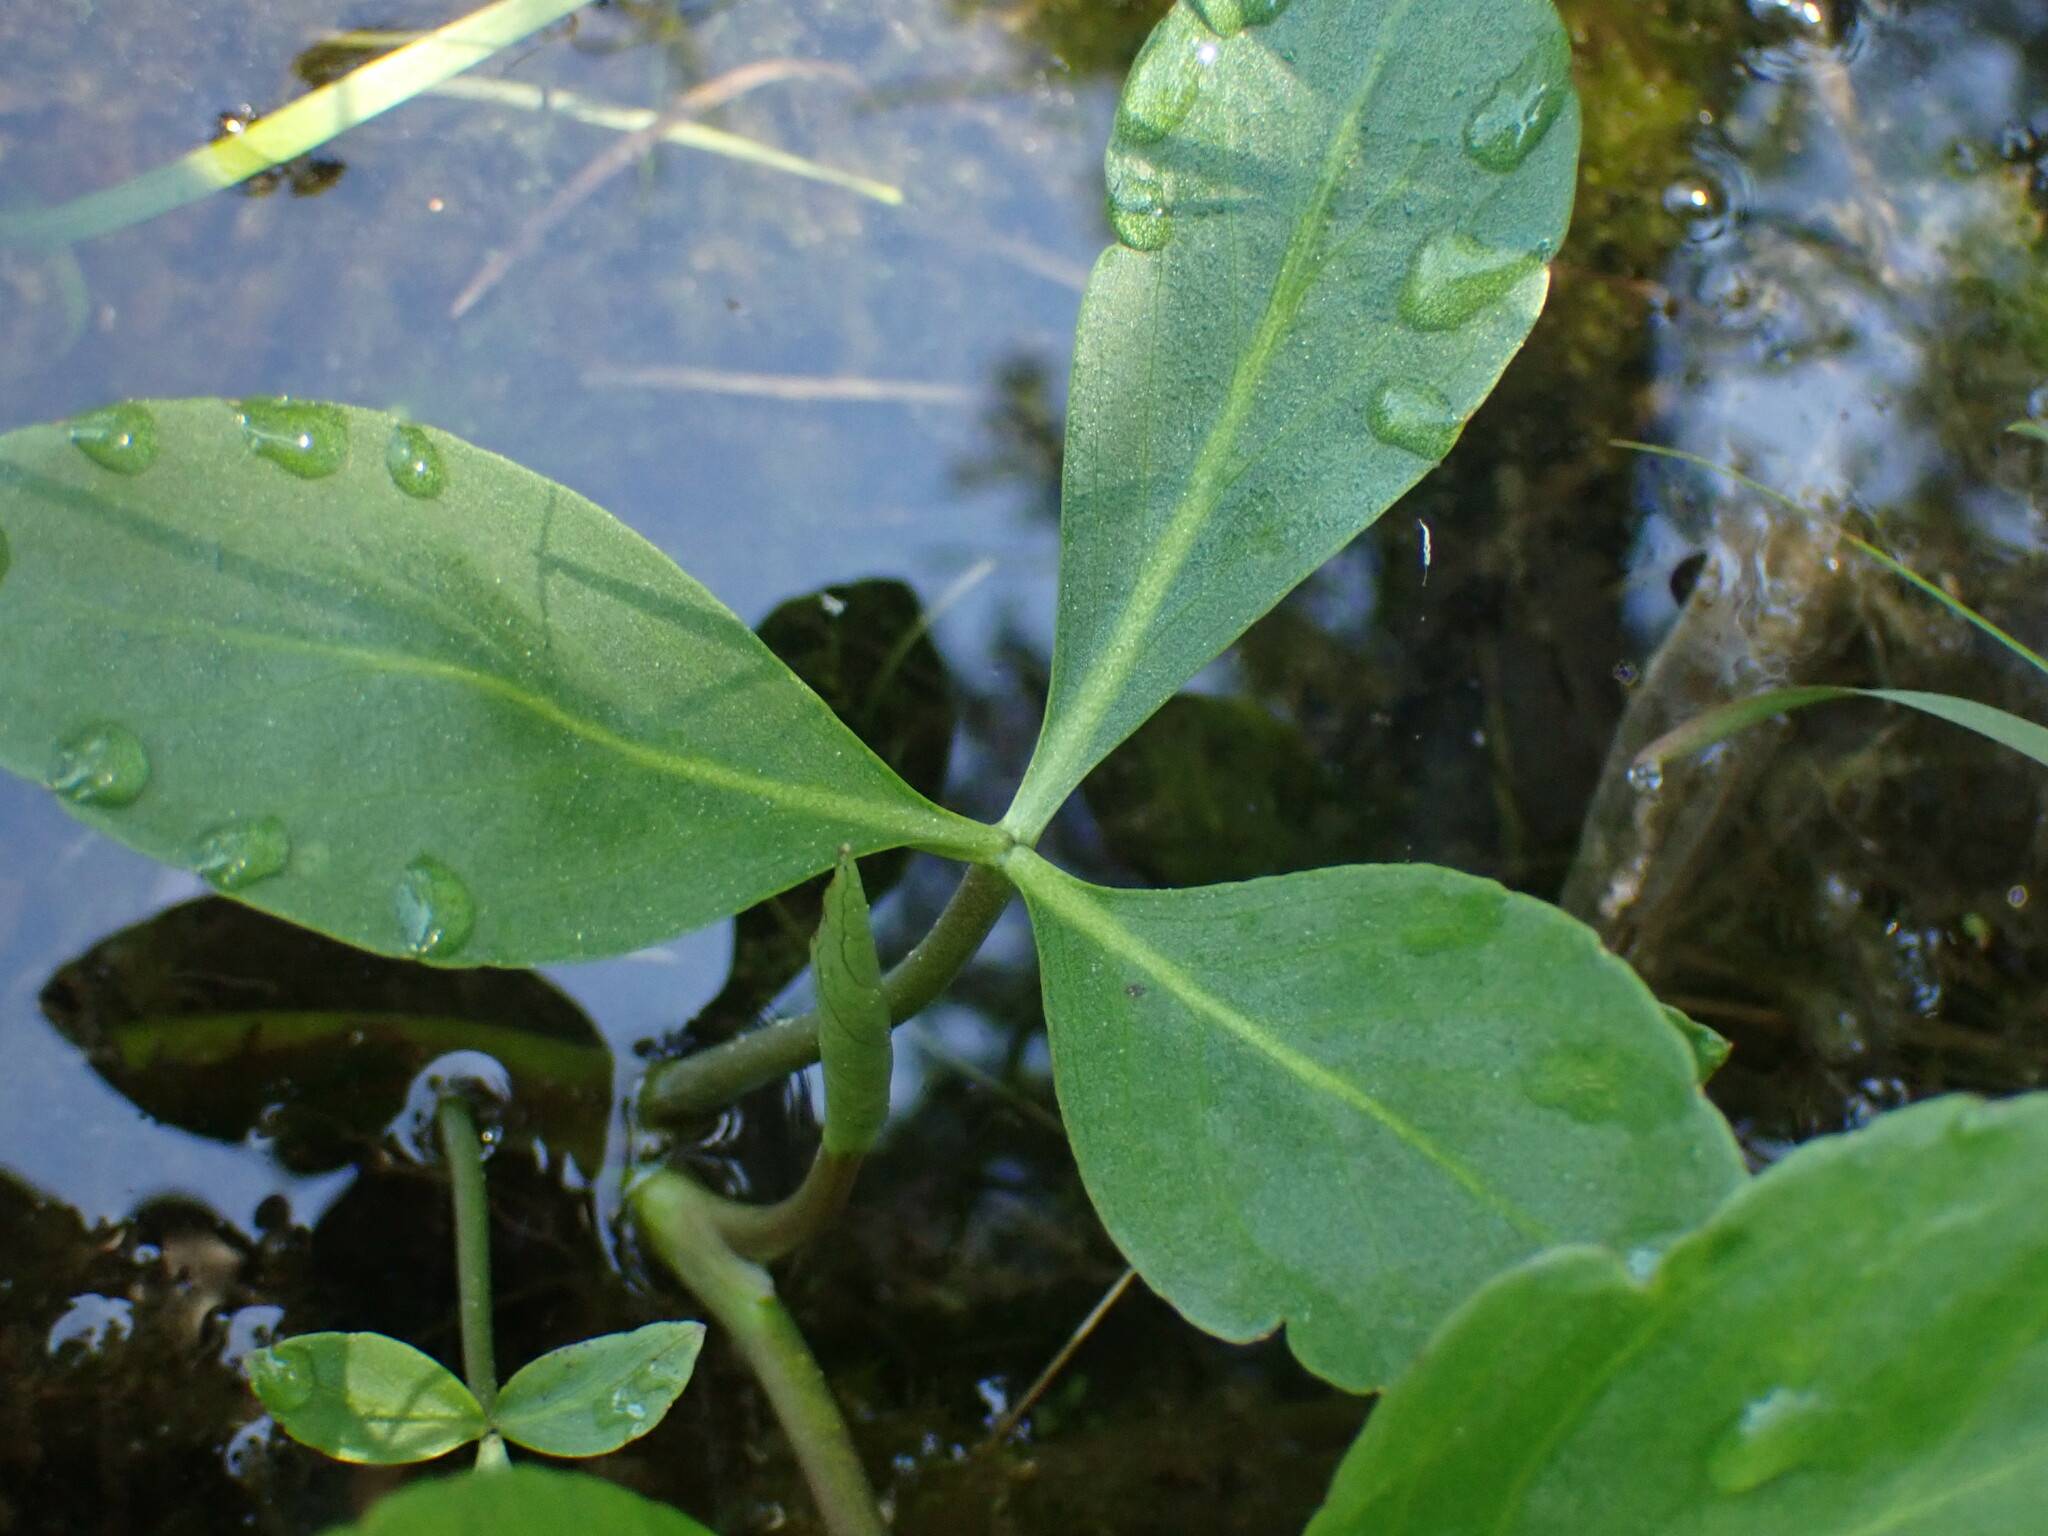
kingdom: Plantae
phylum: Tracheophyta
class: Magnoliopsida
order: Asterales
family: Menyanthaceae
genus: Menyanthes
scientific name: Menyanthes trifoliata
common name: Bogbean
